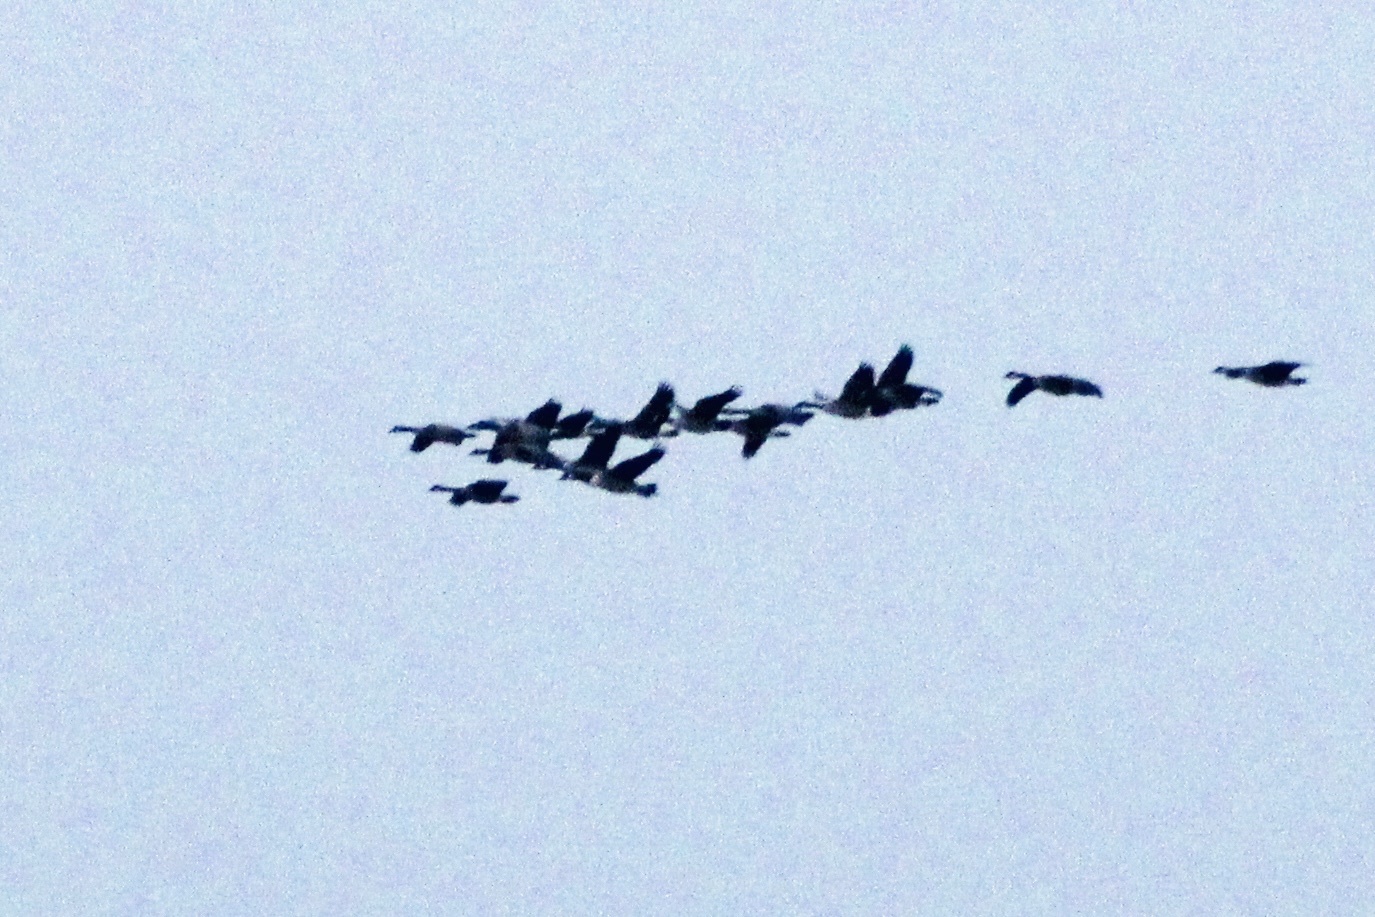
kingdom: Animalia
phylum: Chordata
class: Aves
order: Anseriformes
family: Anatidae
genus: Branta
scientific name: Branta canadensis
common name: Canada goose
